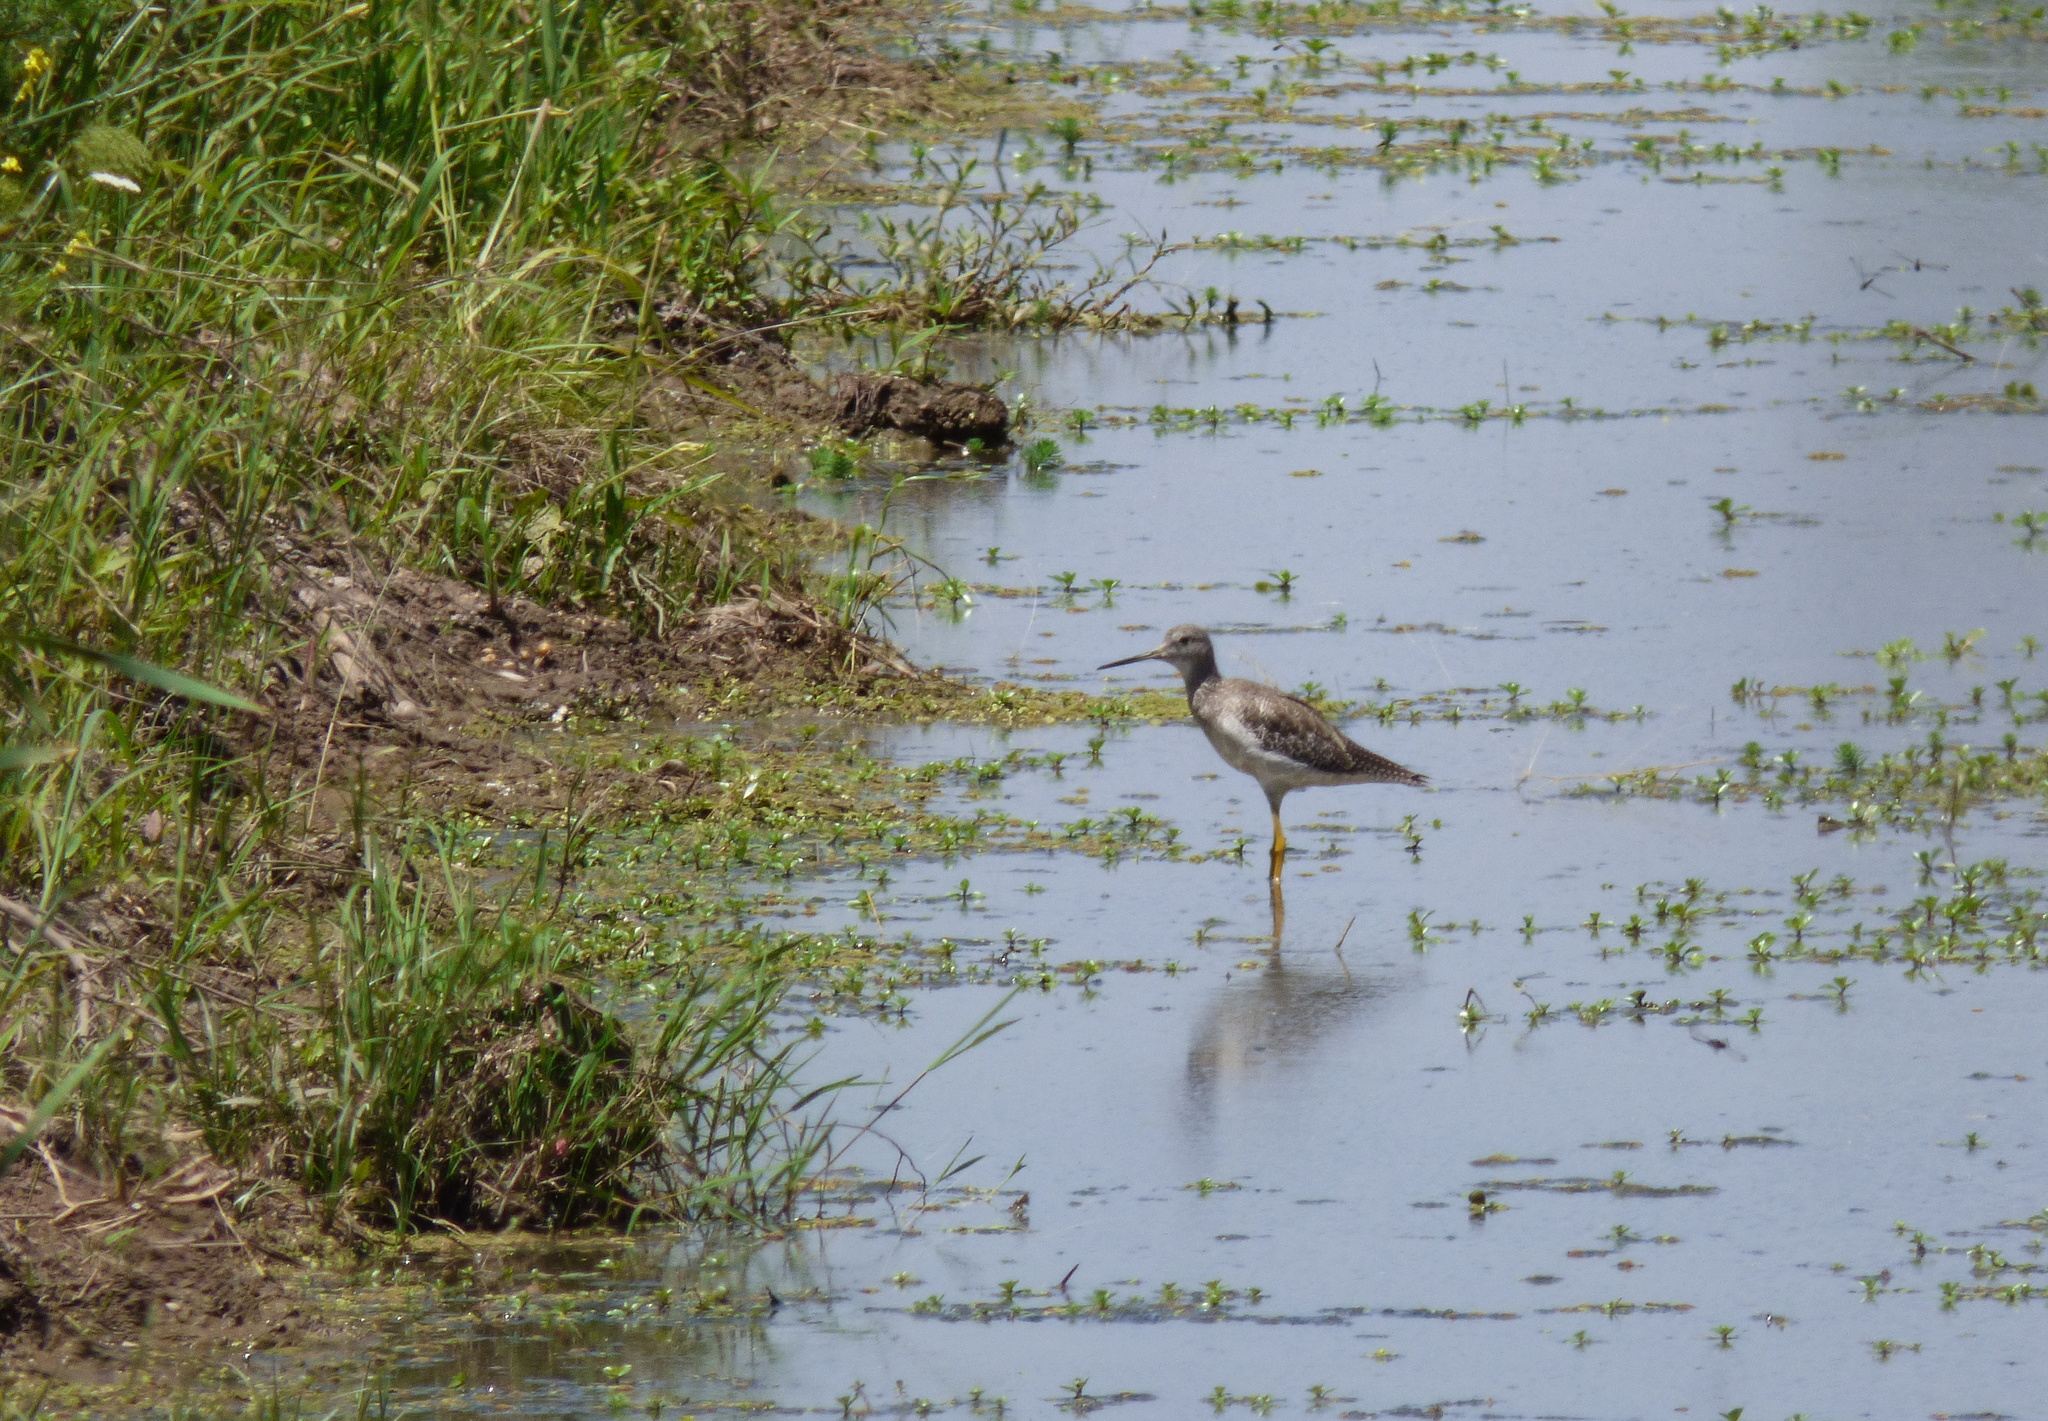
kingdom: Animalia
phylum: Chordata
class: Aves
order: Charadriiformes
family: Scolopacidae
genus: Tringa
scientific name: Tringa melanoleuca
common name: Greater yellowlegs
